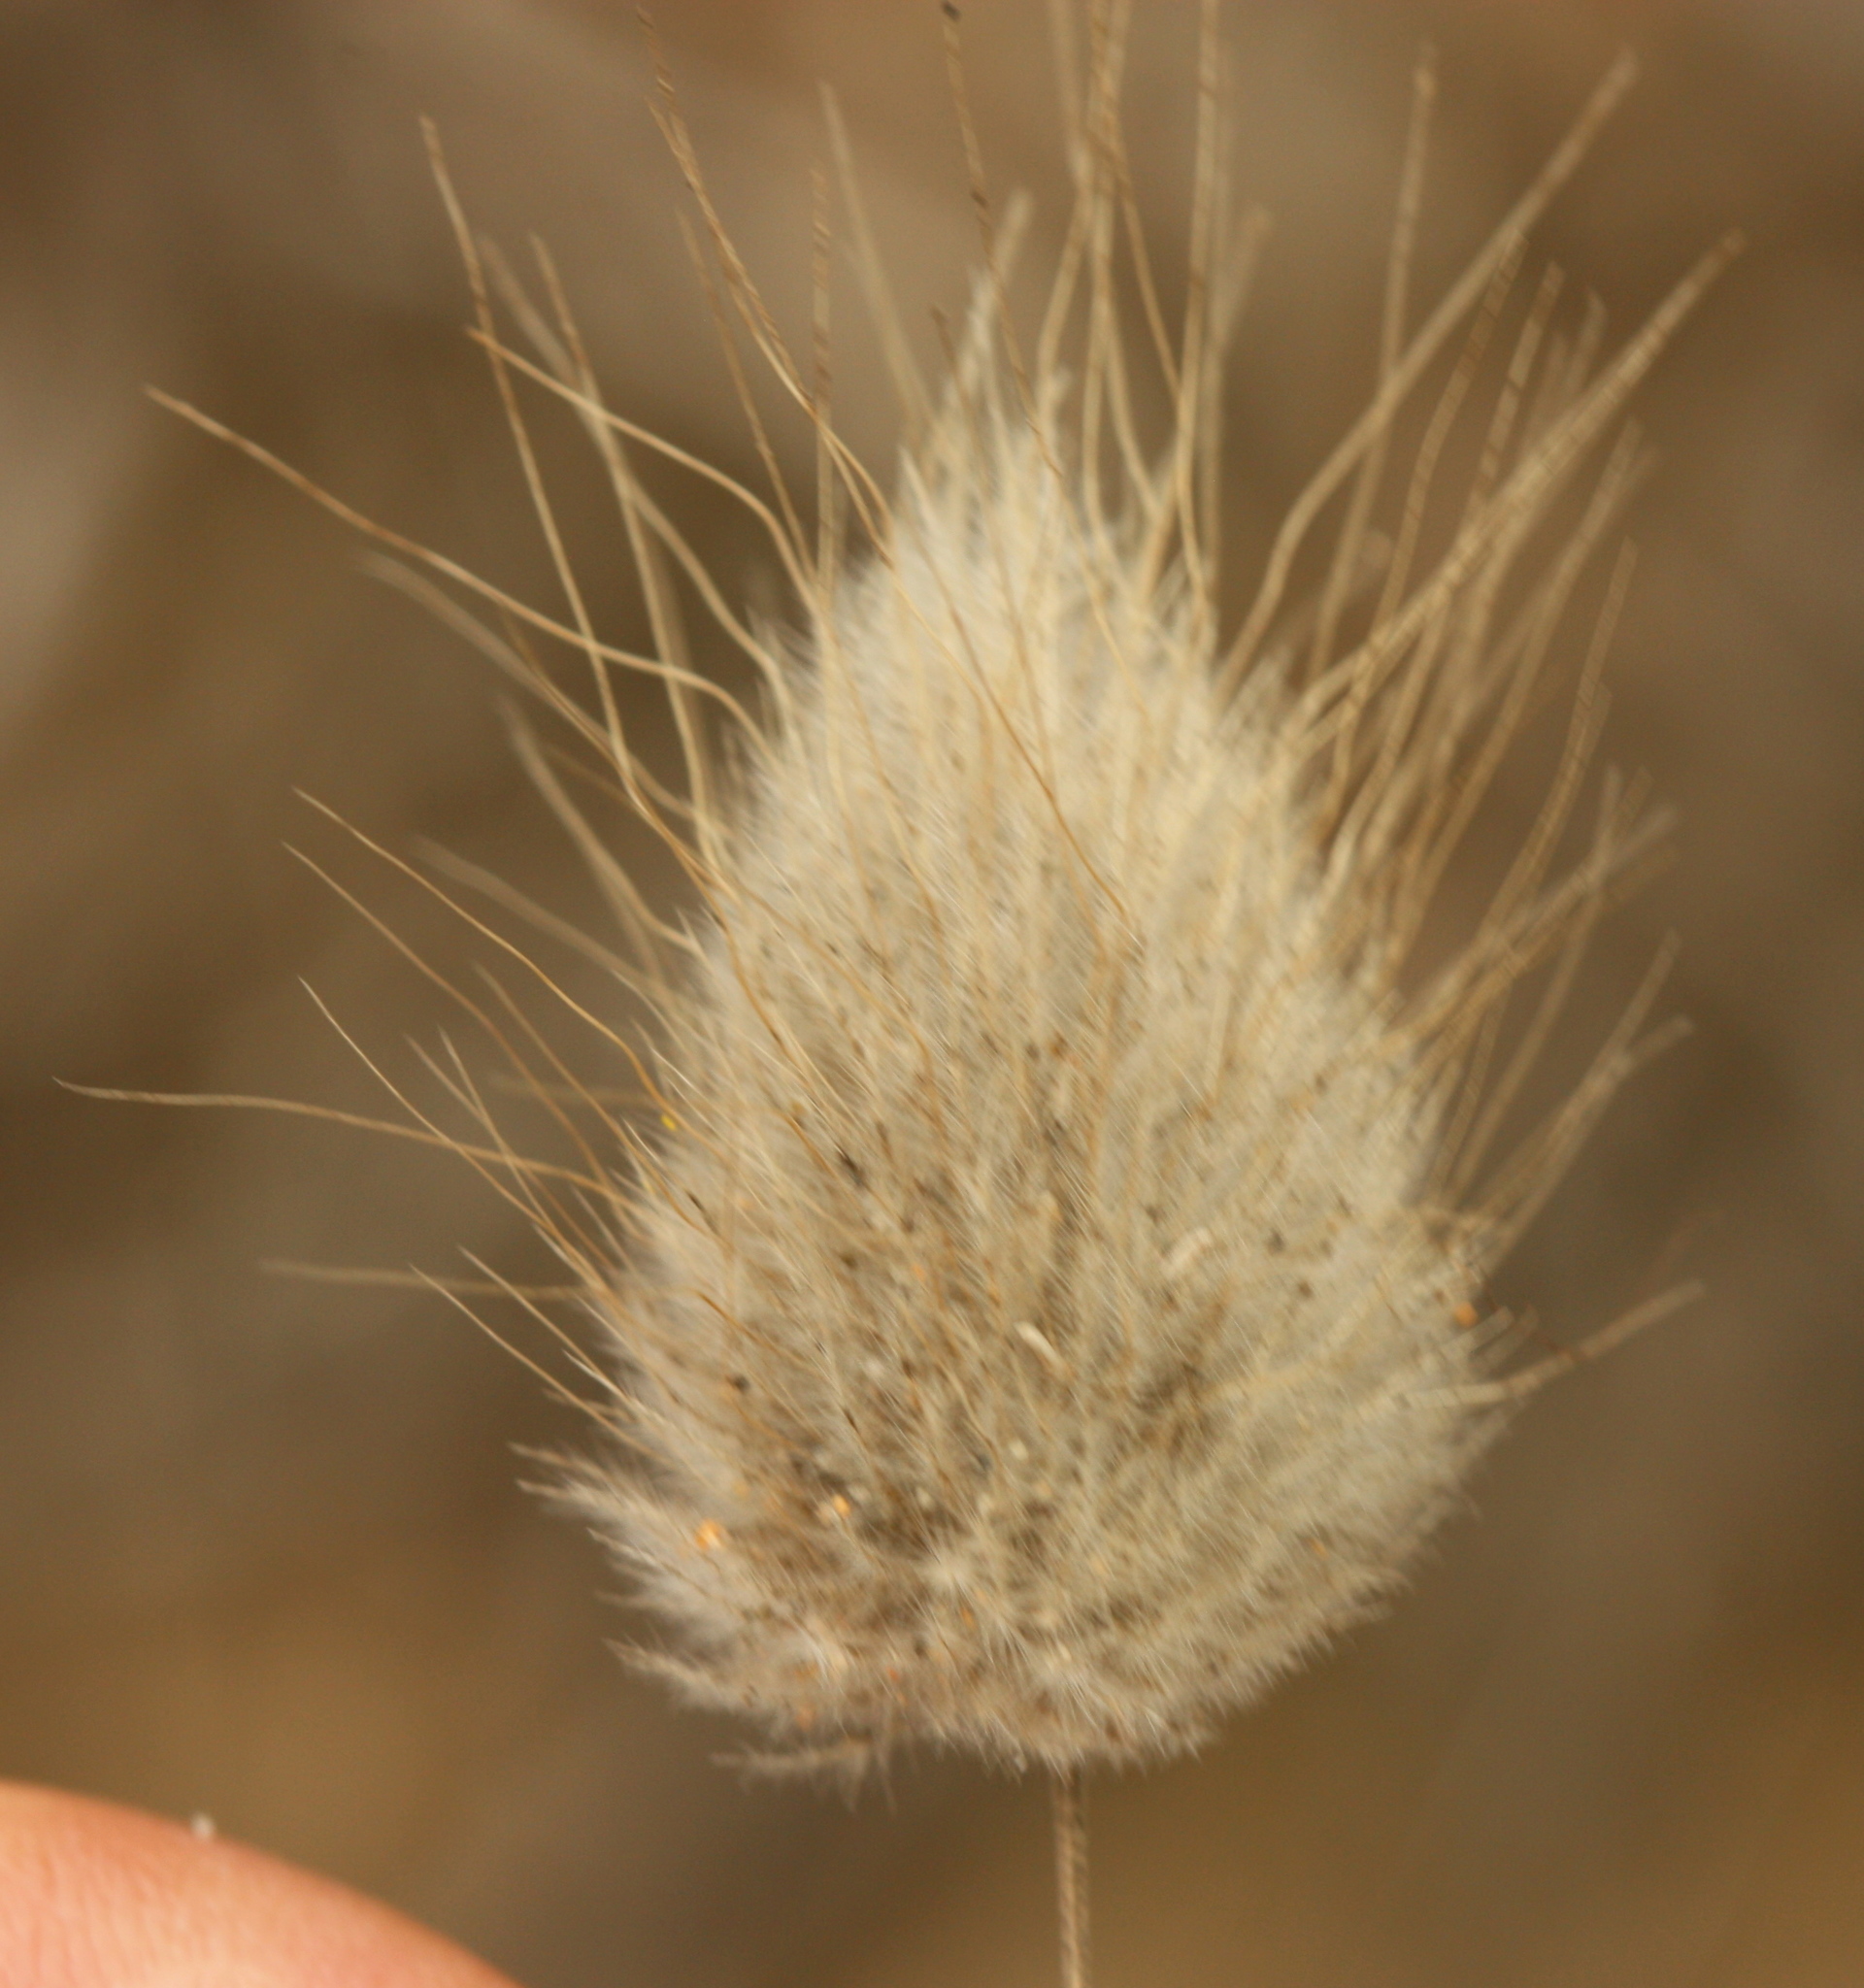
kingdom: Plantae
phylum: Tracheophyta
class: Liliopsida
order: Poales
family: Poaceae
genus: Lagurus
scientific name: Lagurus ovatus
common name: Hare's-tail
